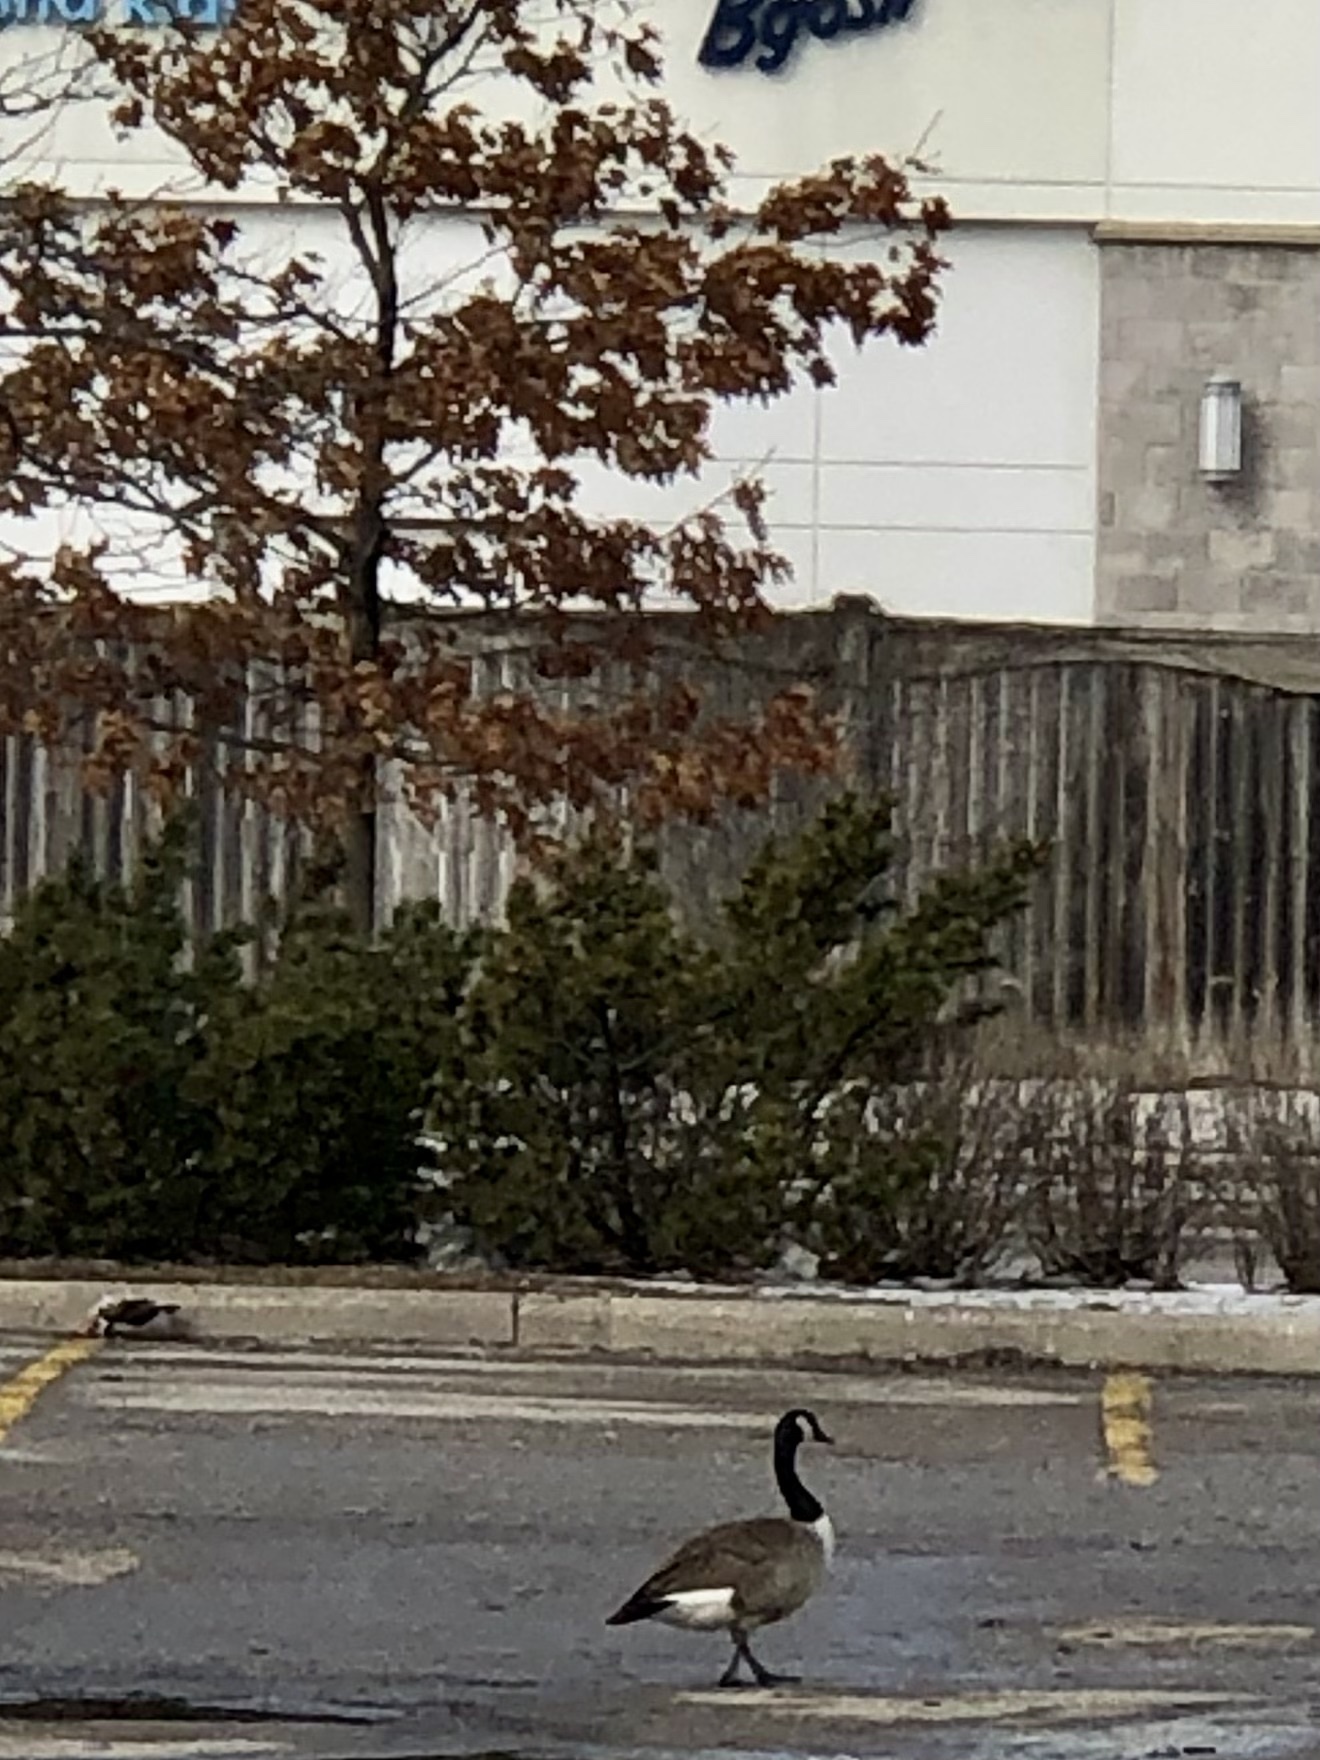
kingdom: Animalia
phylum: Chordata
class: Aves
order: Anseriformes
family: Anatidae
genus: Branta
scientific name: Branta canadensis
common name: Canada goose
